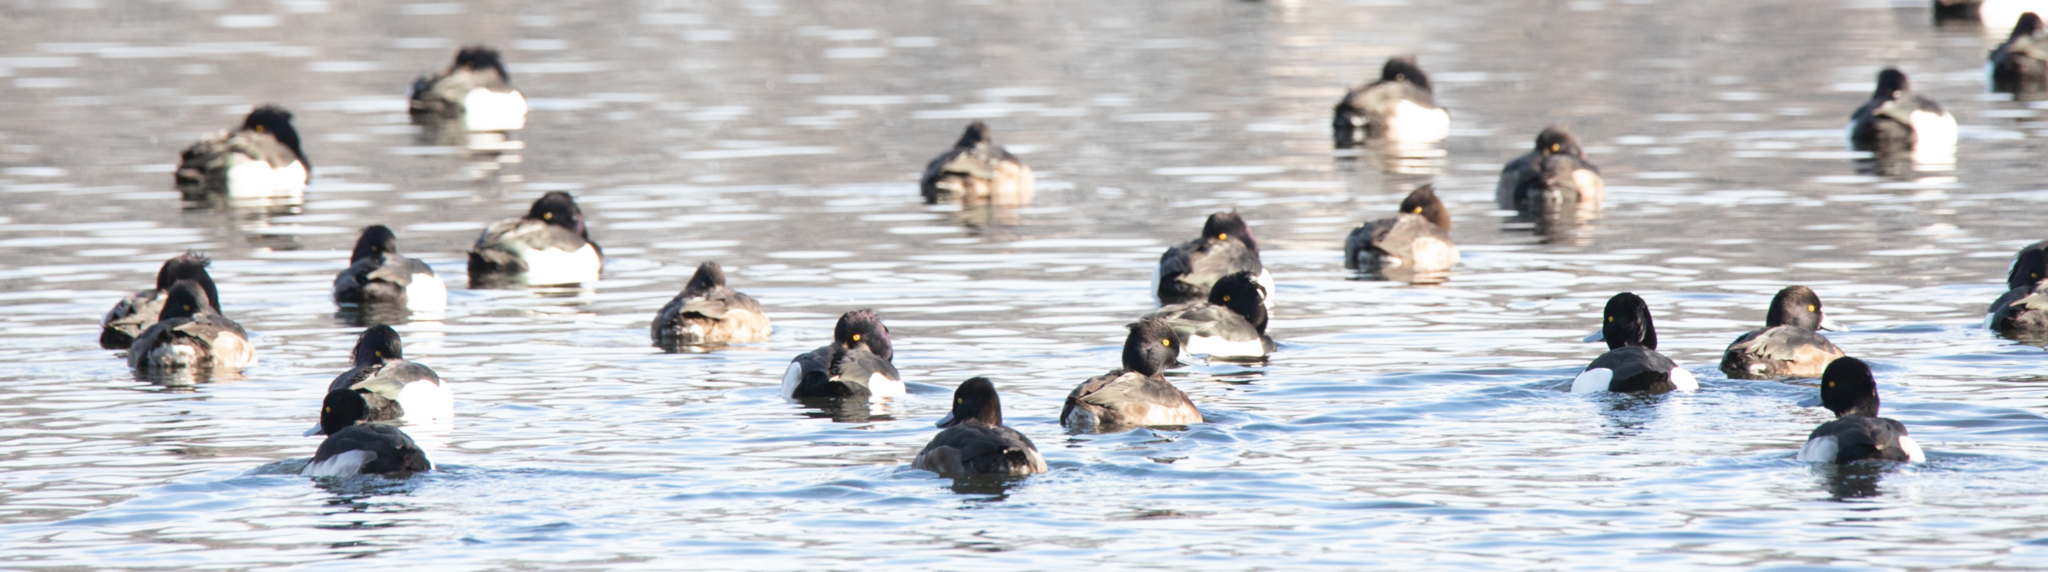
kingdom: Animalia
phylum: Chordata
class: Aves
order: Anseriformes
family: Anatidae
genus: Aythya
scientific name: Aythya fuligula
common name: Tufted duck
